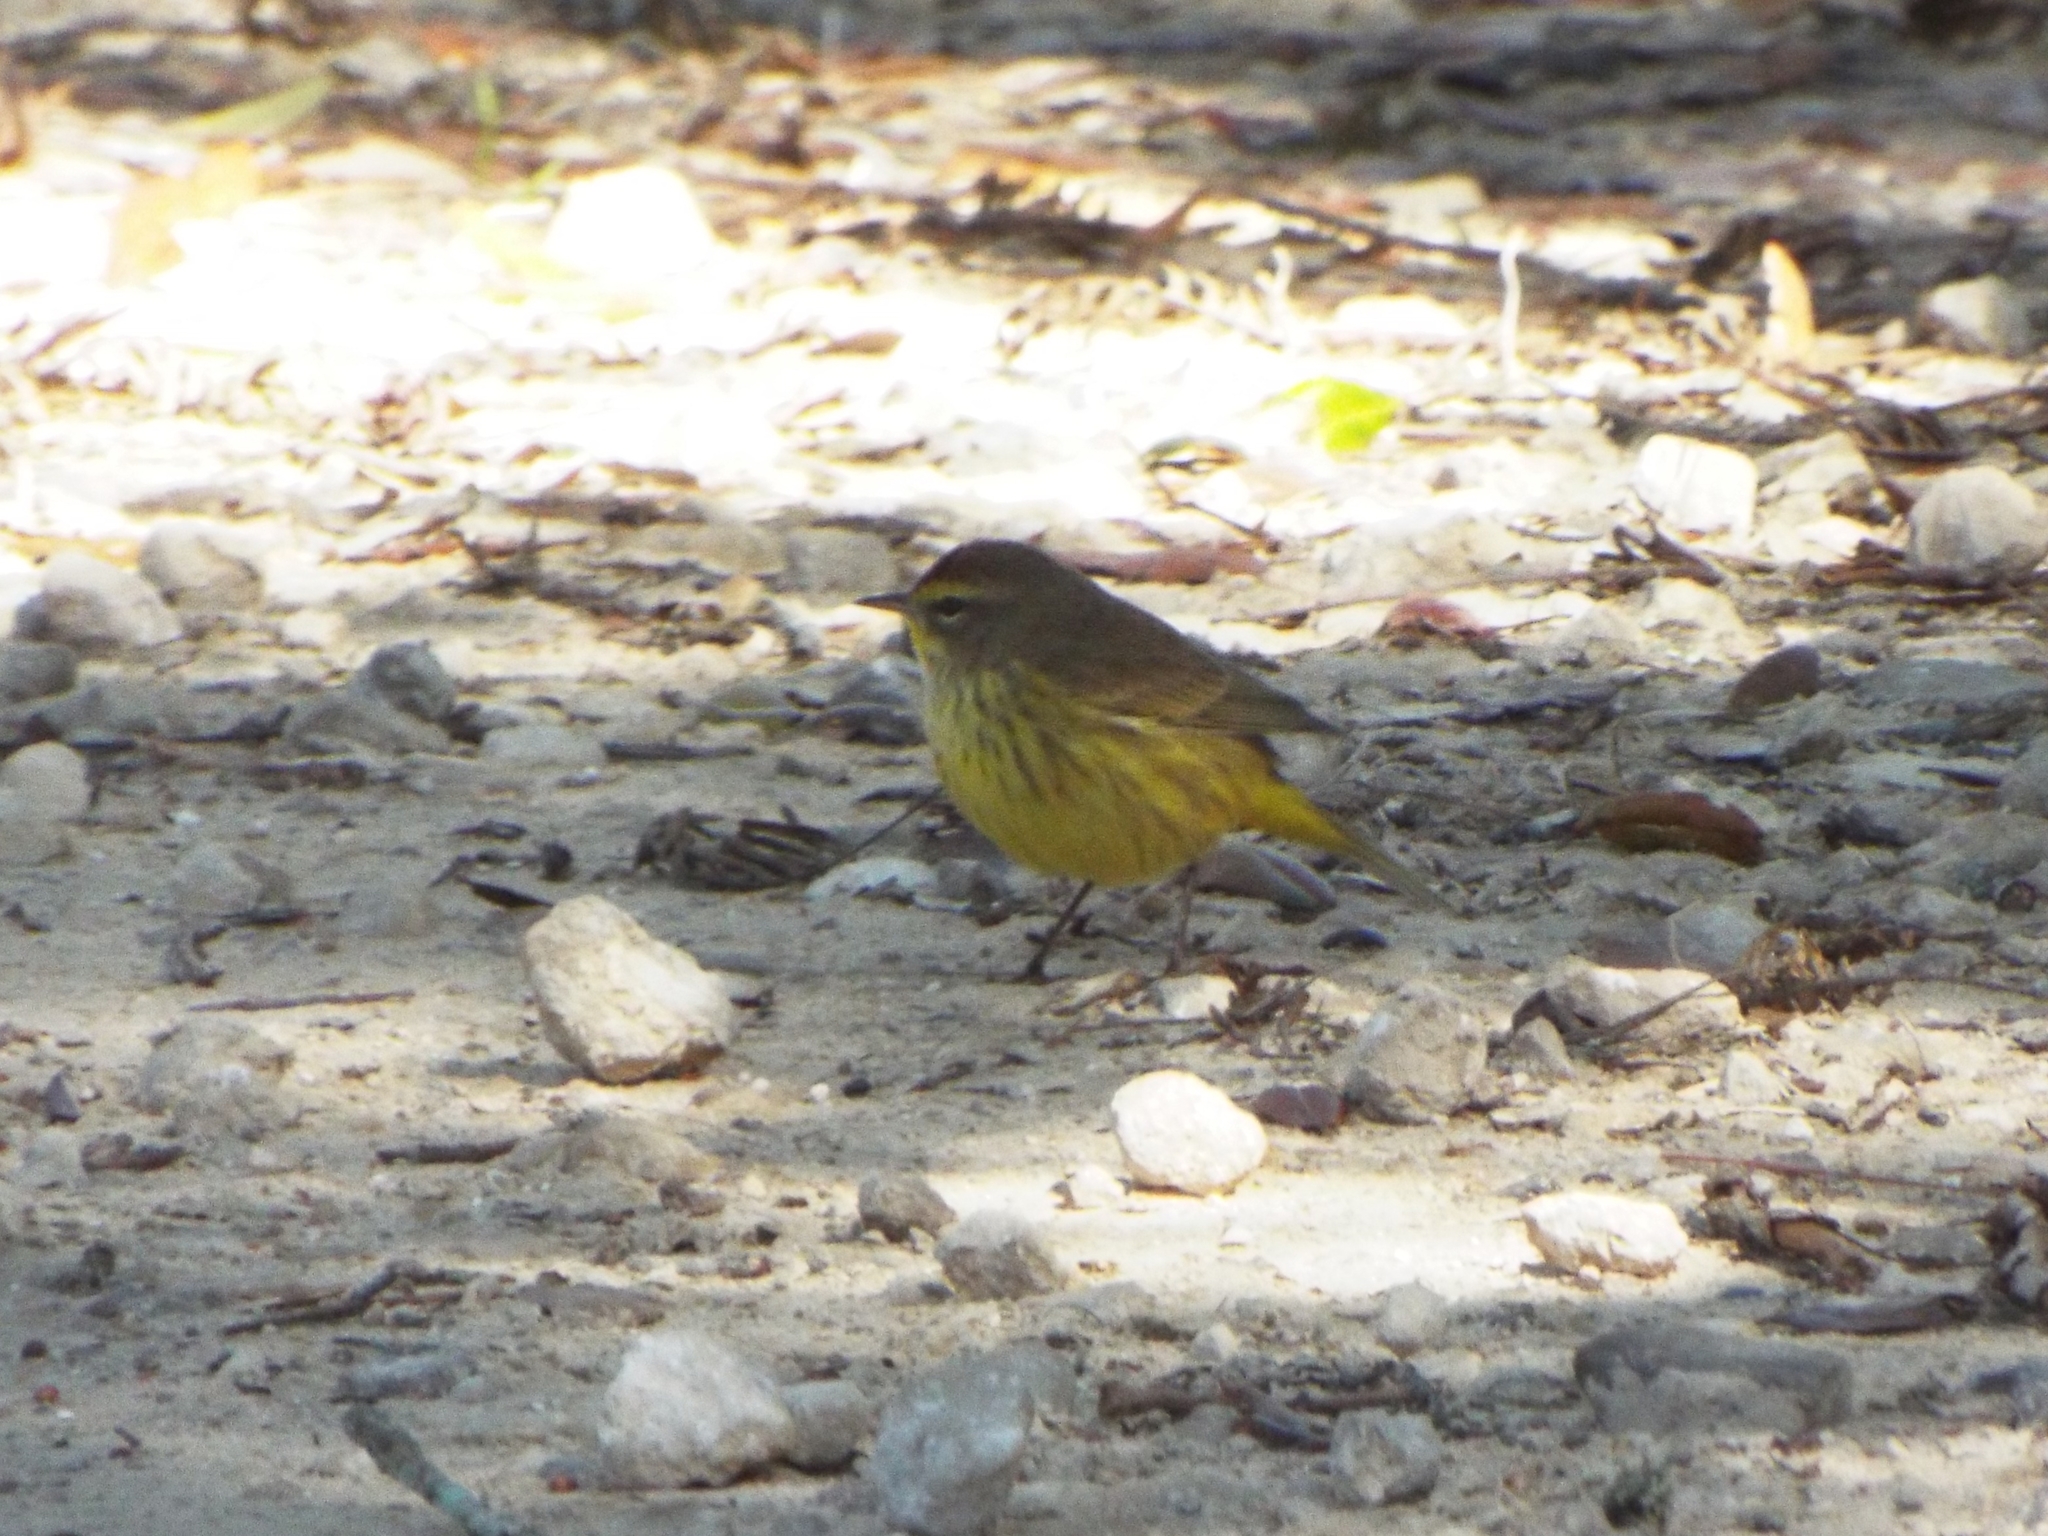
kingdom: Animalia
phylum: Chordata
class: Aves
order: Passeriformes
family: Parulidae
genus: Setophaga
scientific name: Setophaga palmarum
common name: Palm warbler
